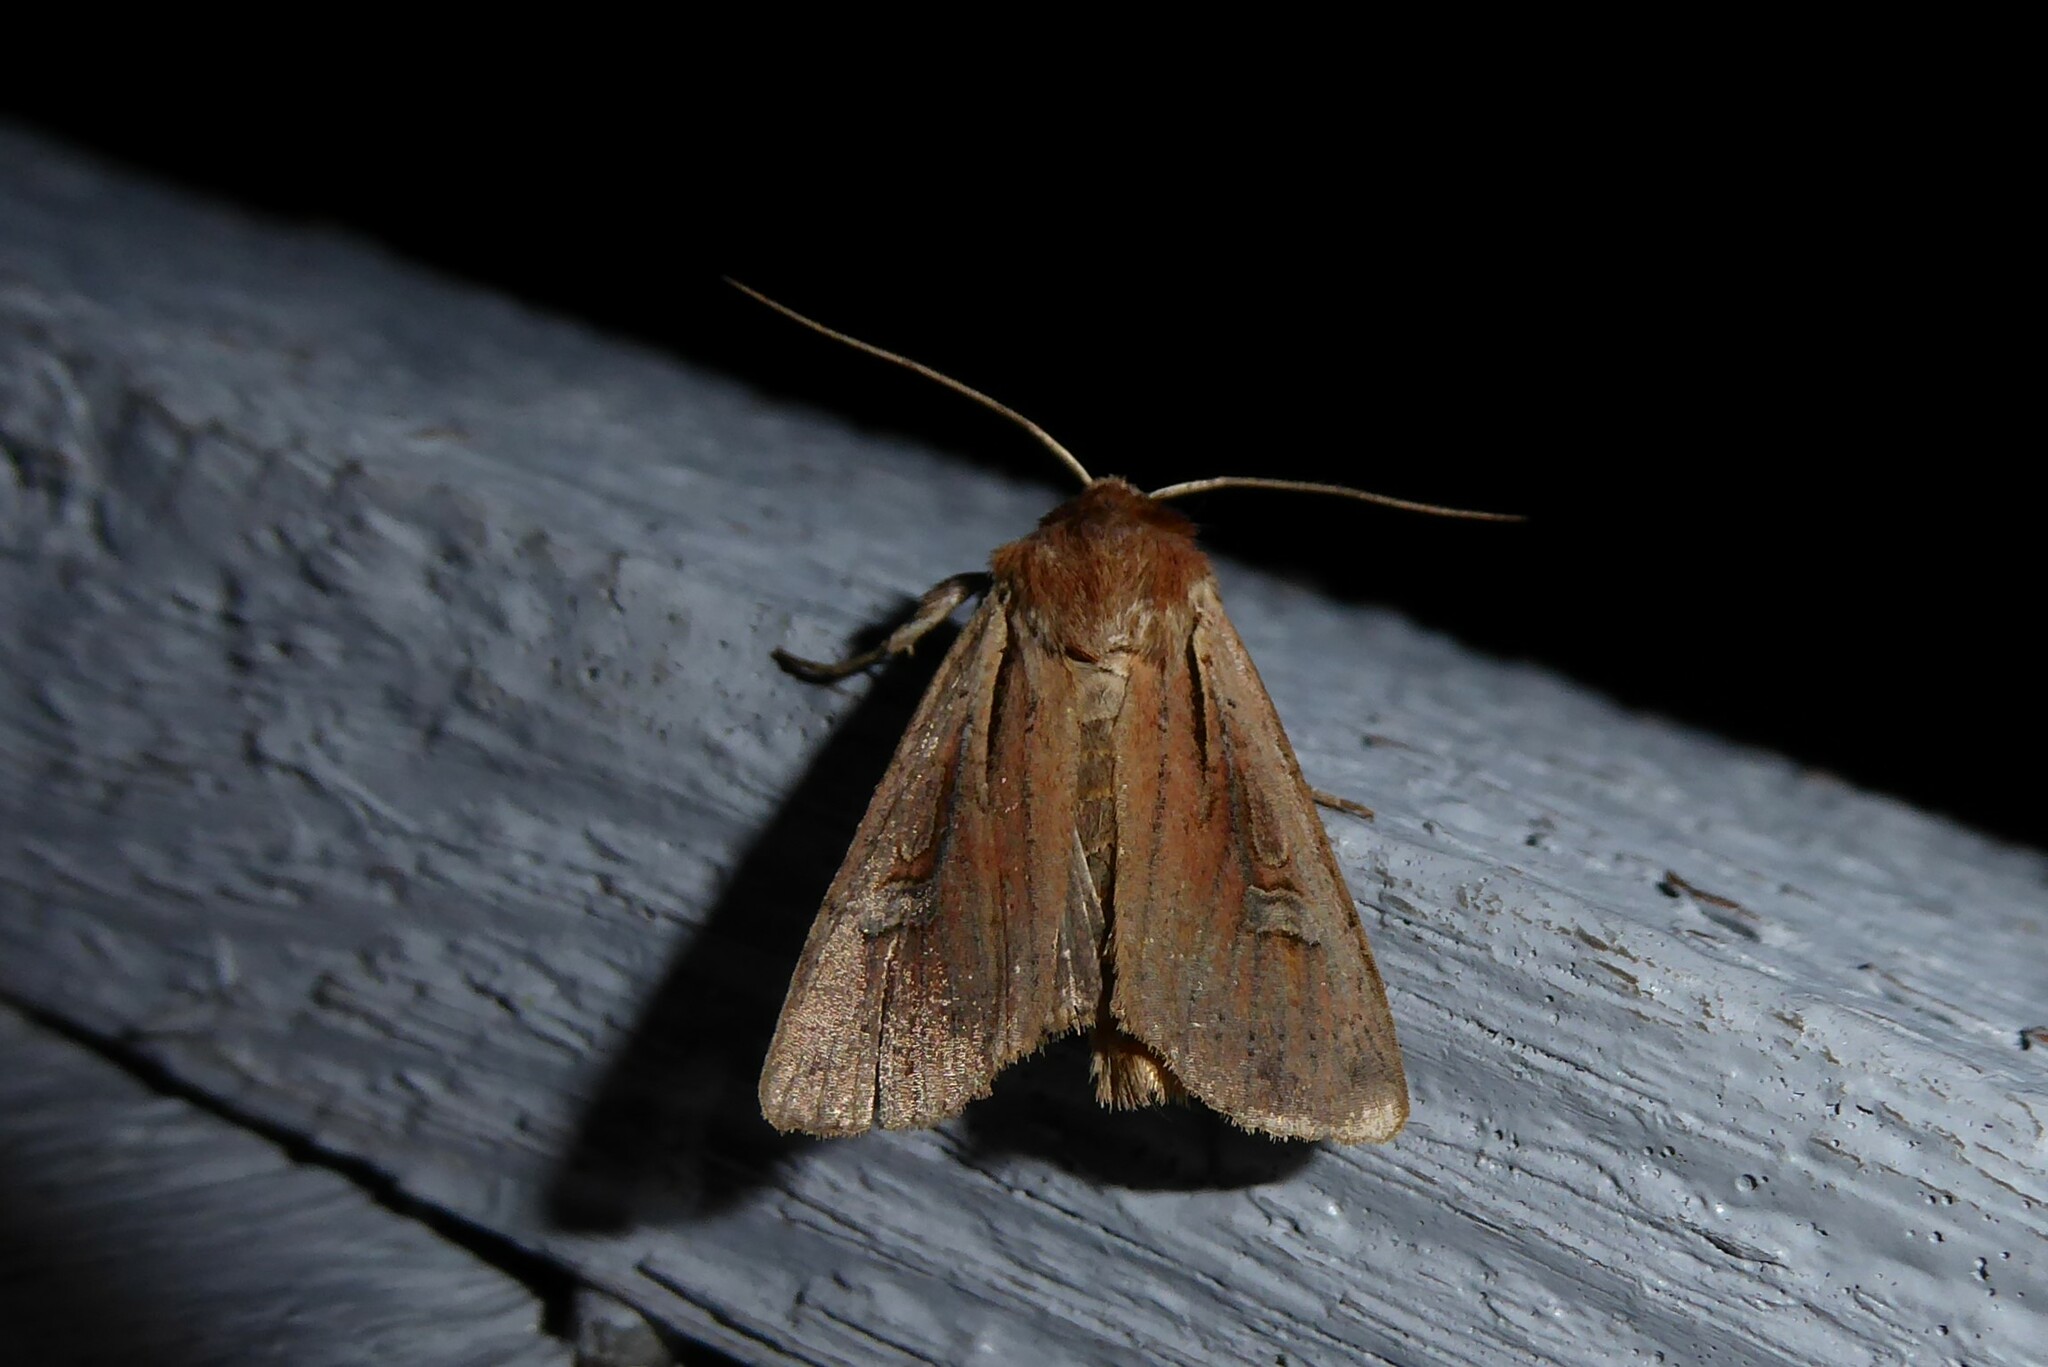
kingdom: Animalia
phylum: Arthropoda
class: Insecta
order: Lepidoptera
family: Noctuidae
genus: Ichneutica
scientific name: Ichneutica atristriga
